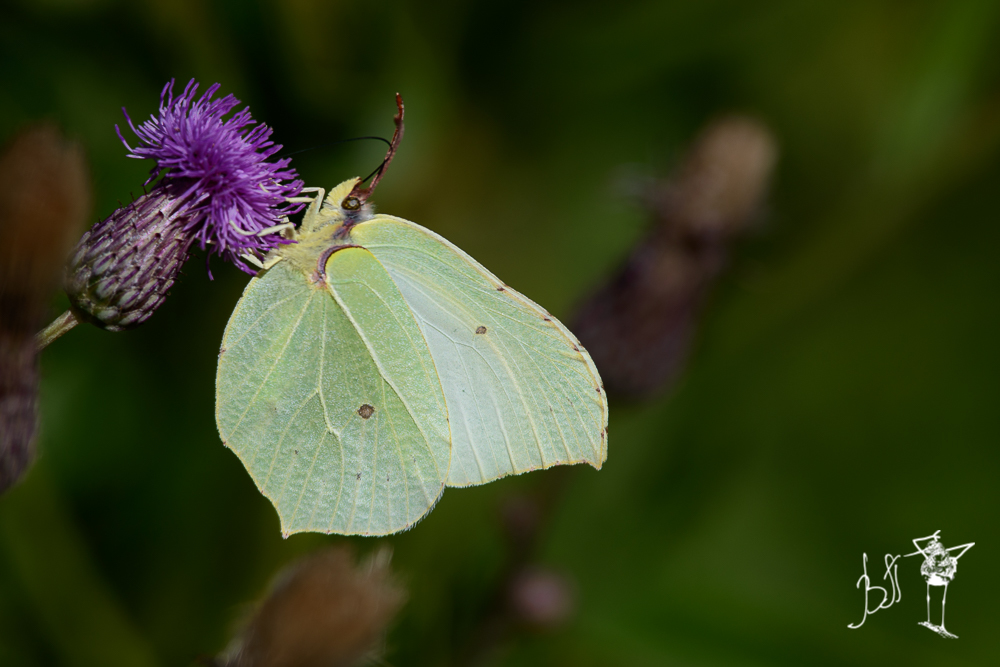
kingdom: Animalia
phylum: Arthropoda
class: Insecta
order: Lepidoptera
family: Pieridae
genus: Gonepteryx
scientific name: Gonepteryx rhamni
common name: Brimstone
